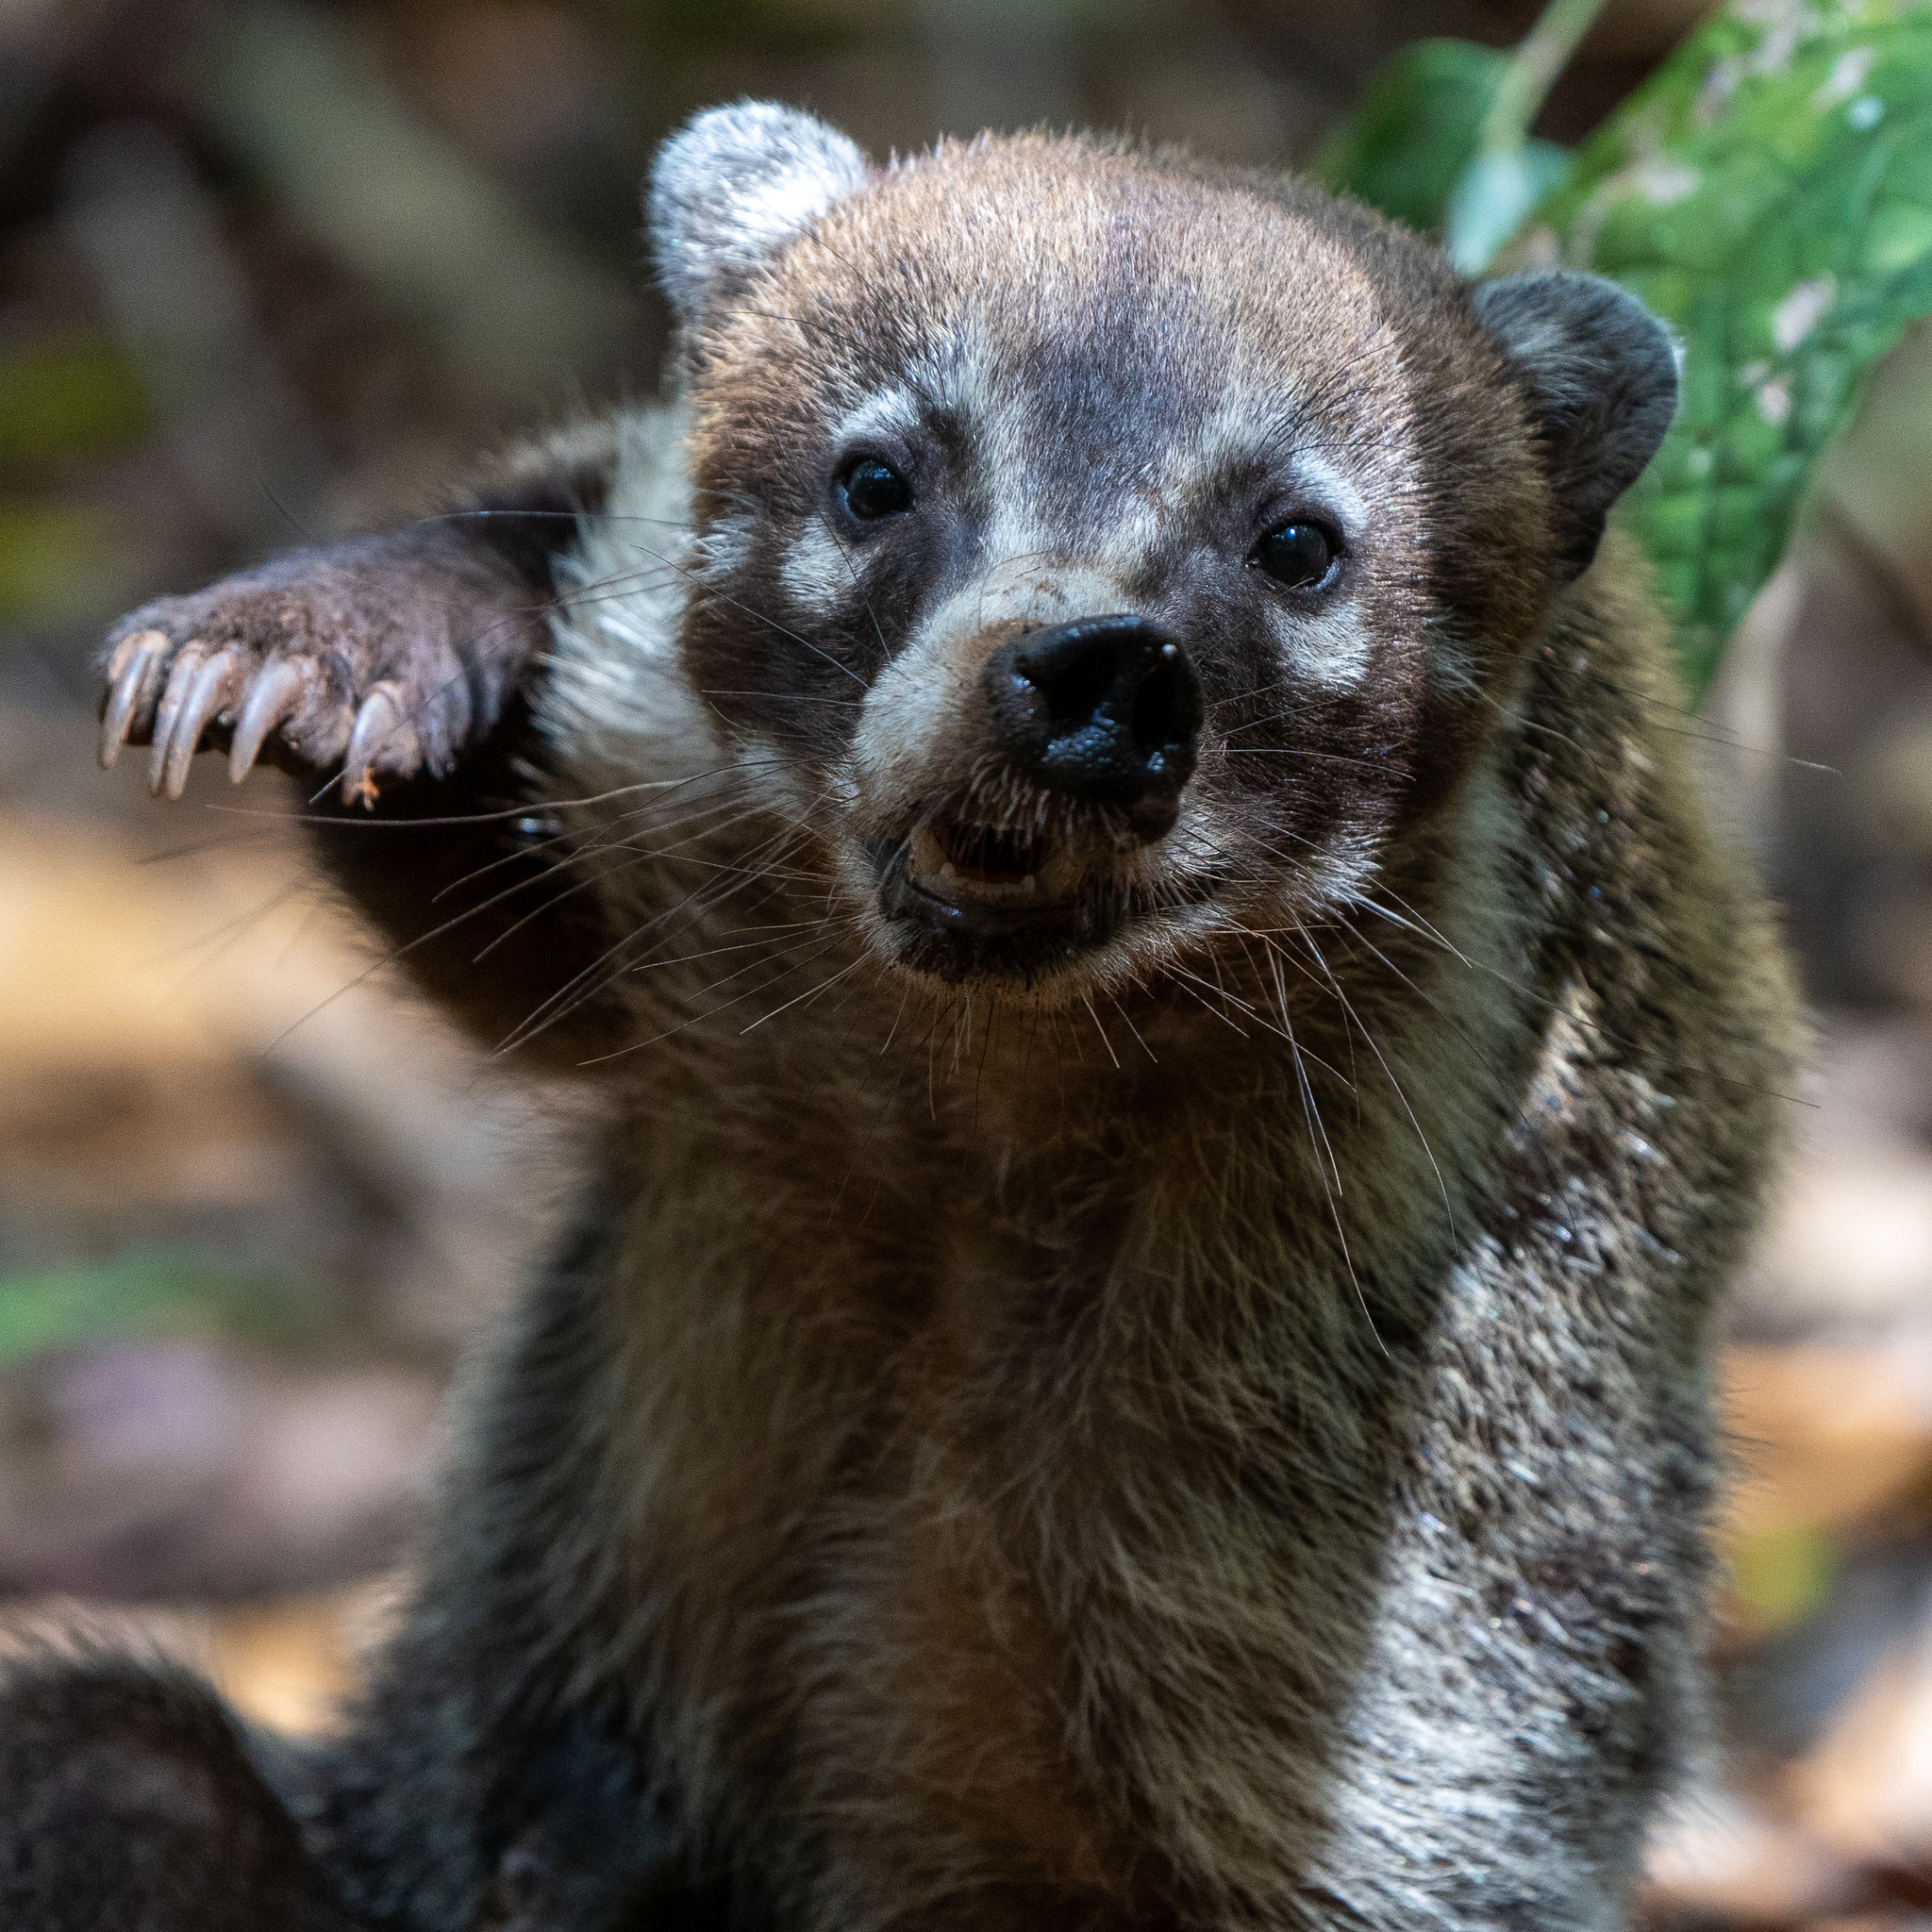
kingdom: Animalia
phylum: Chordata
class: Mammalia
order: Carnivora
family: Procyonidae
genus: Nasua
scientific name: Nasua narica
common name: White-nosed coati
